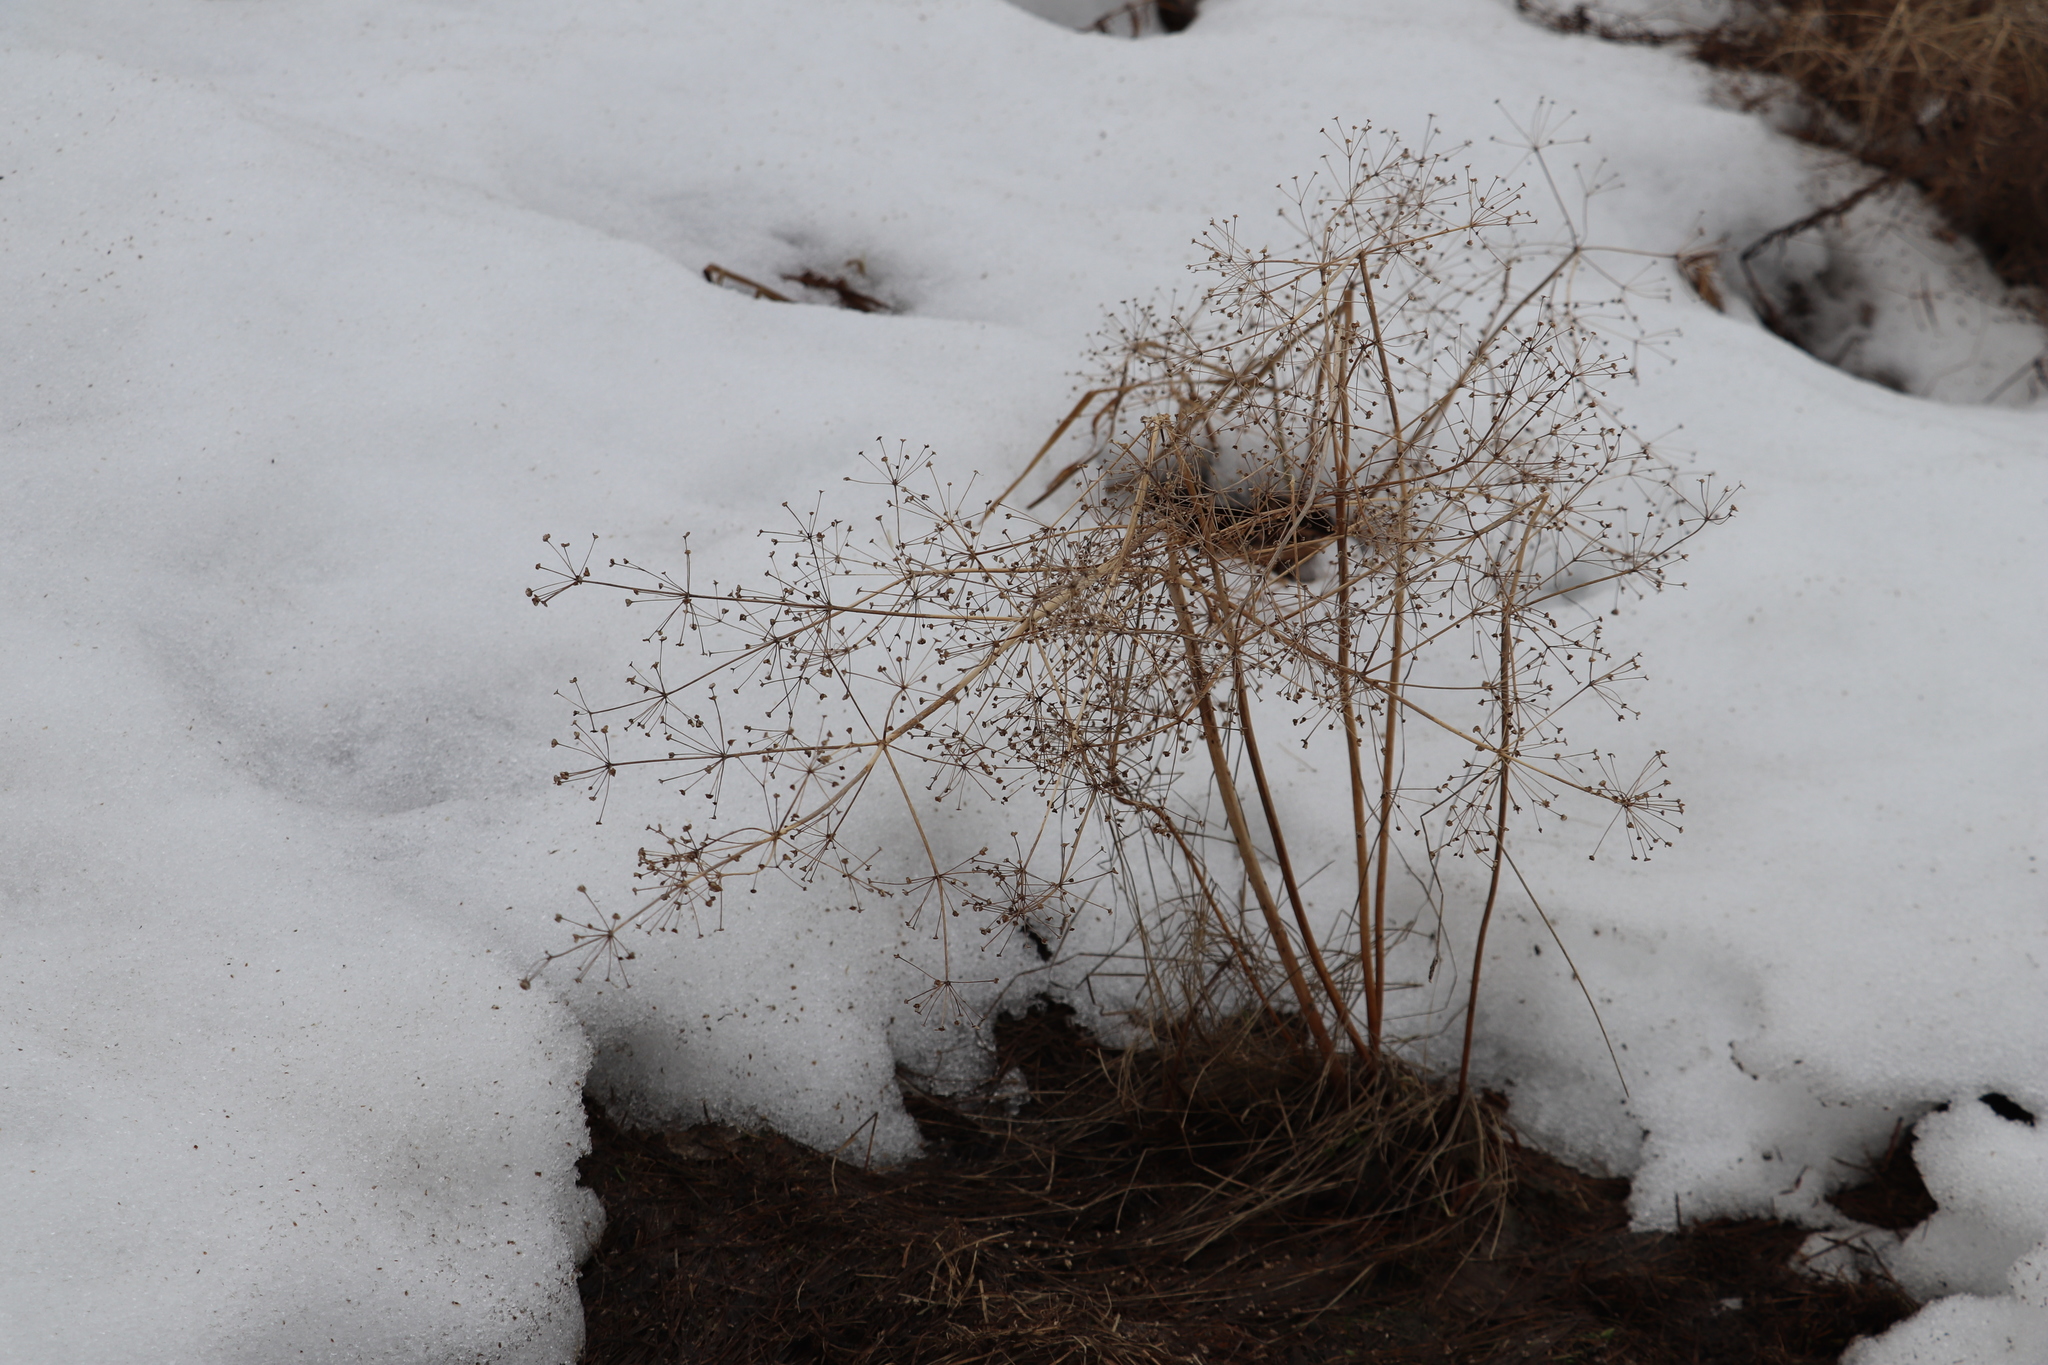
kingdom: Plantae
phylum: Tracheophyta
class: Liliopsida
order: Alismatales
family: Alismataceae
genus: Alisma
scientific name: Alisma plantago-aquatica
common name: Water-plantain
